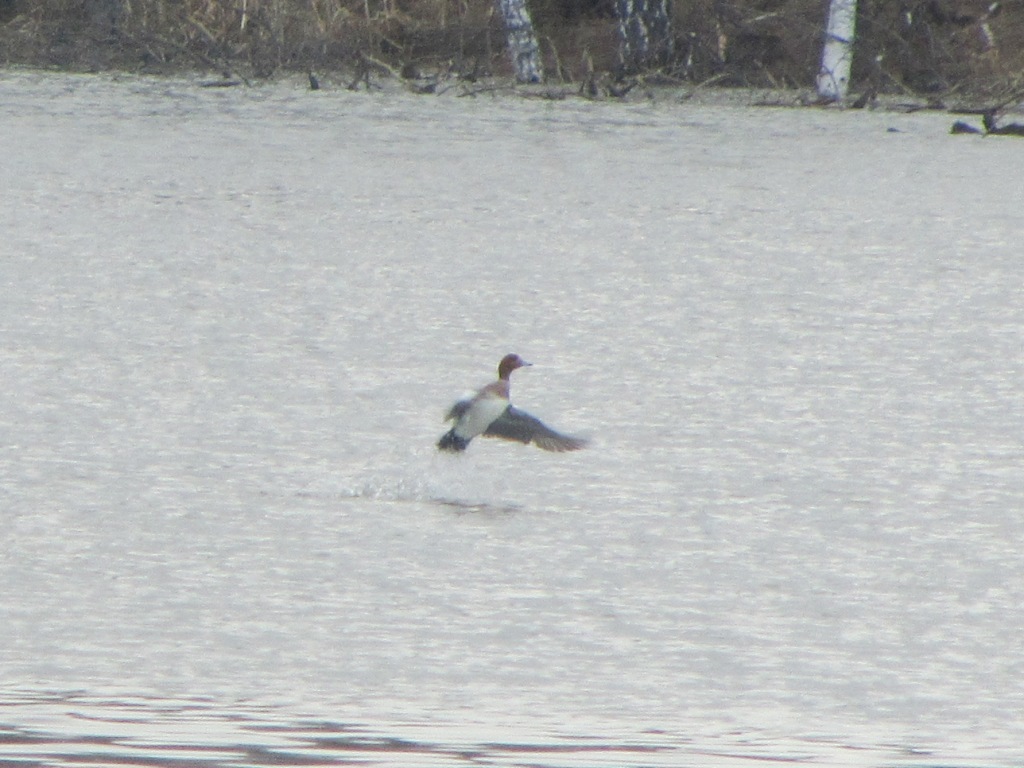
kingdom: Animalia
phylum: Chordata
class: Aves
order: Anseriformes
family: Anatidae
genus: Mareca
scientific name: Mareca penelope
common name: Eurasian wigeon
